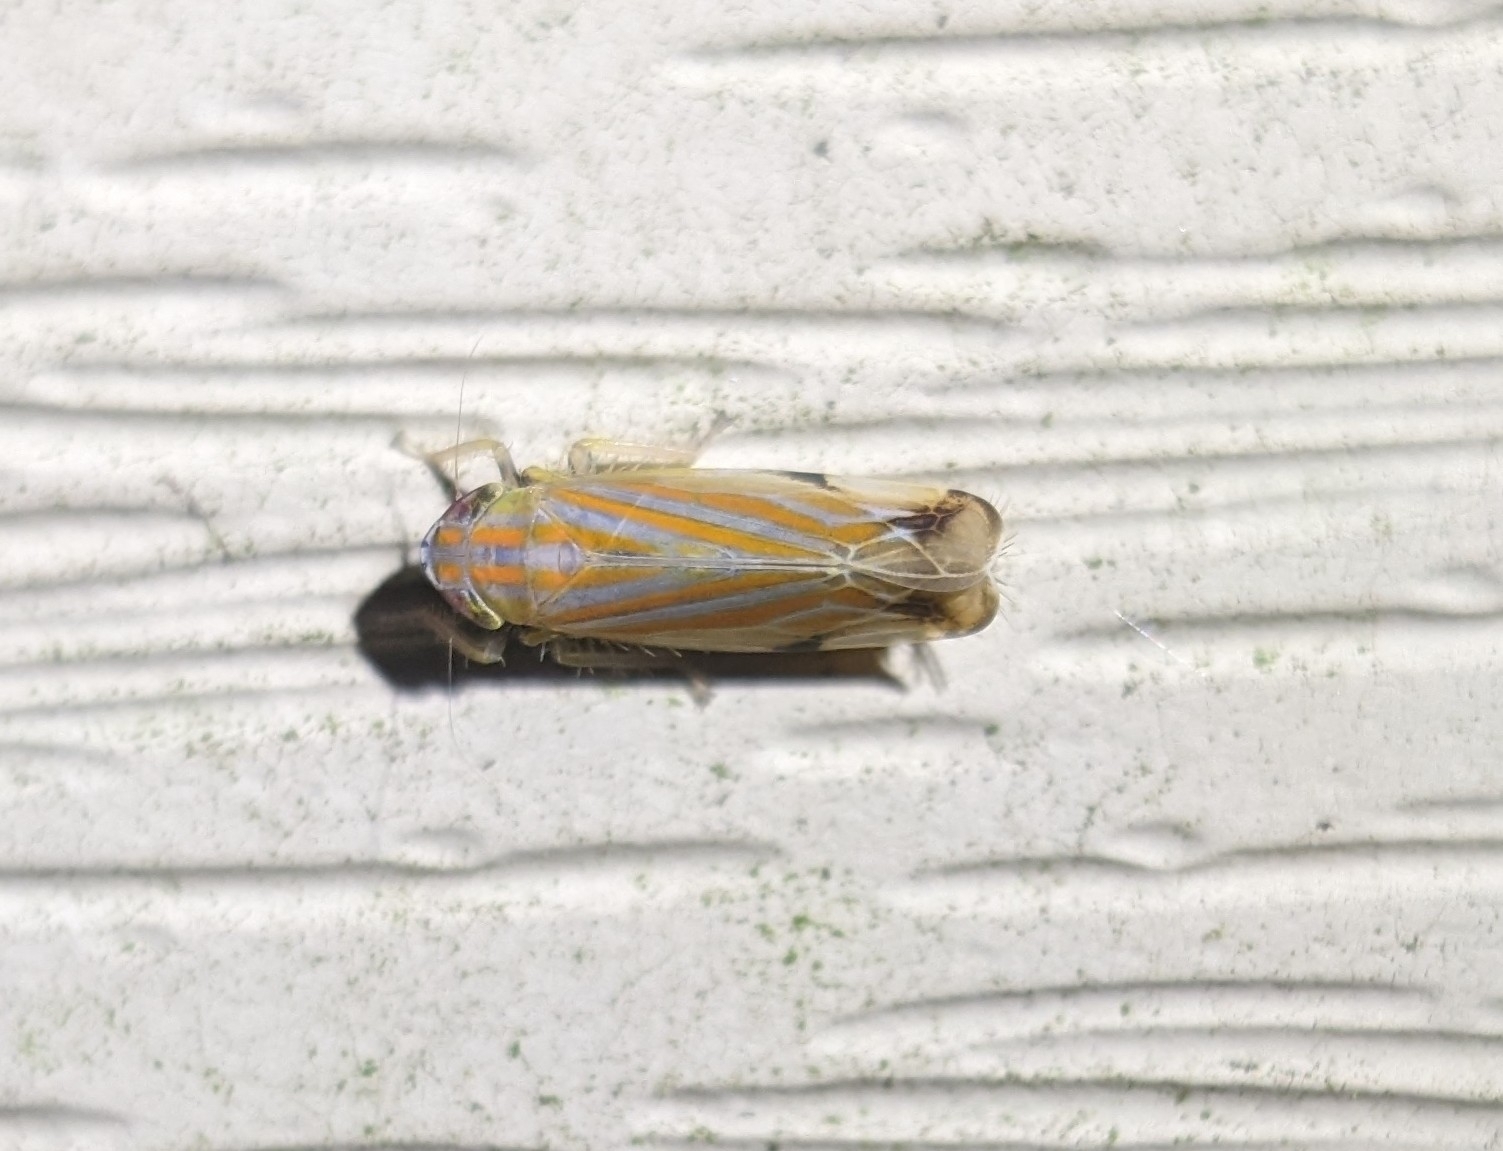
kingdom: Animalia
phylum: Arthropoda
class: Insecta
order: Hemiptera
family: Cicadellidae
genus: Deltanus
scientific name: Deltanus texanus
